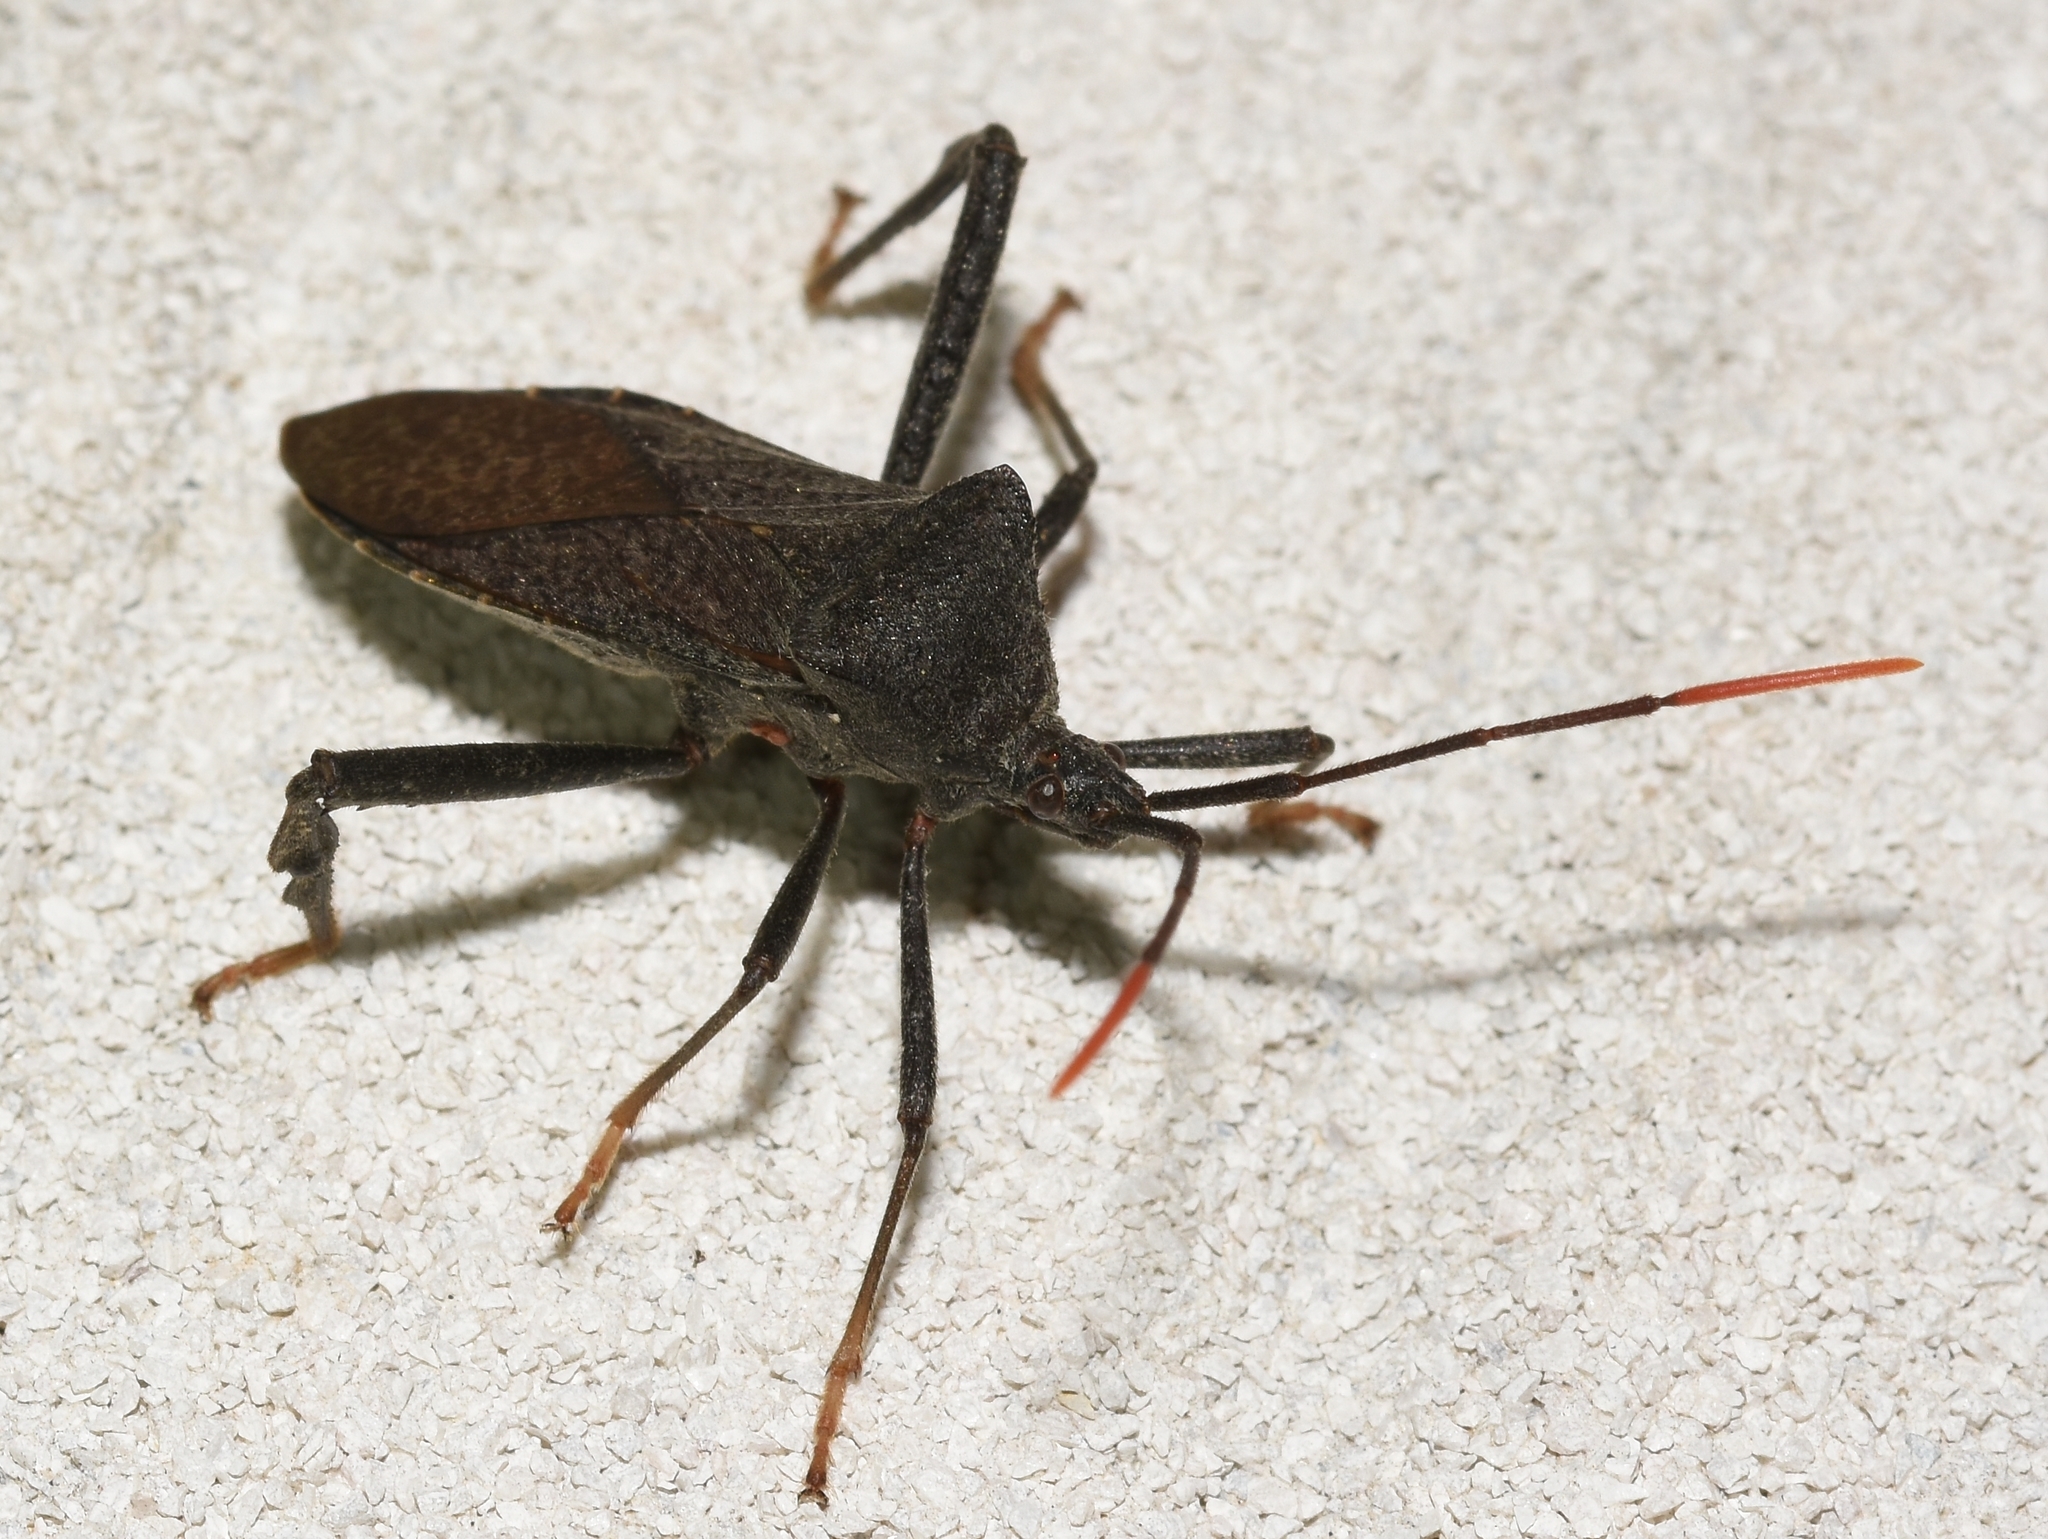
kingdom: Animalia
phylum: Arthropoda
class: Insecta
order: Hemiptera
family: Coreidae
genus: Acanthocephala
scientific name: Acanthocephala terminalis
